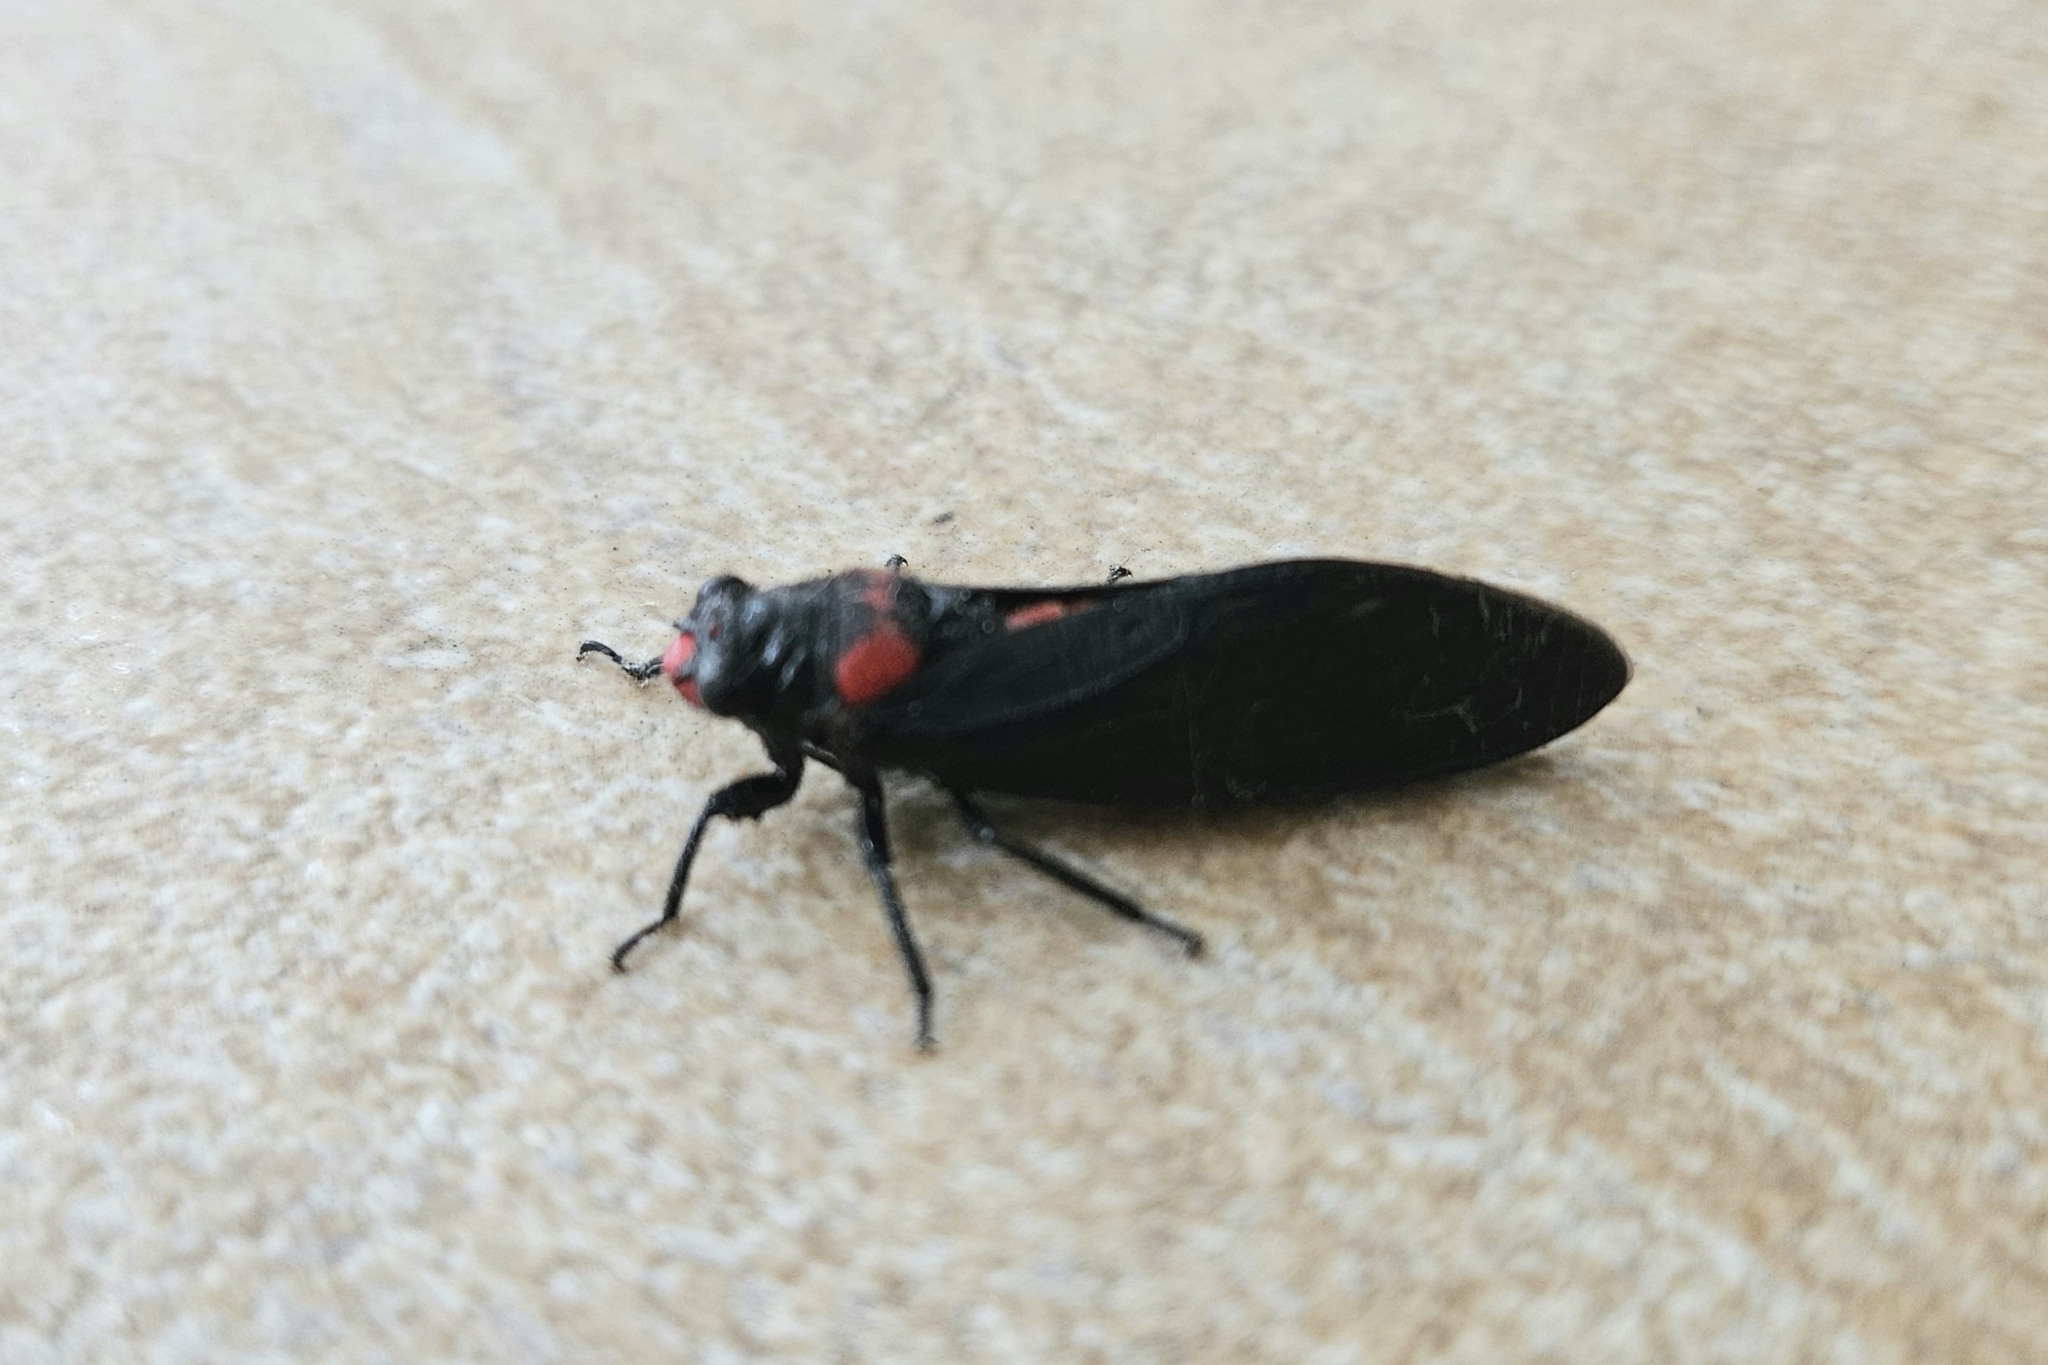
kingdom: Animalia
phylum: Arthropoda
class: Insecta
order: Hemiptera
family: Cicadidae
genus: Huechys
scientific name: Huechys sanguinea
